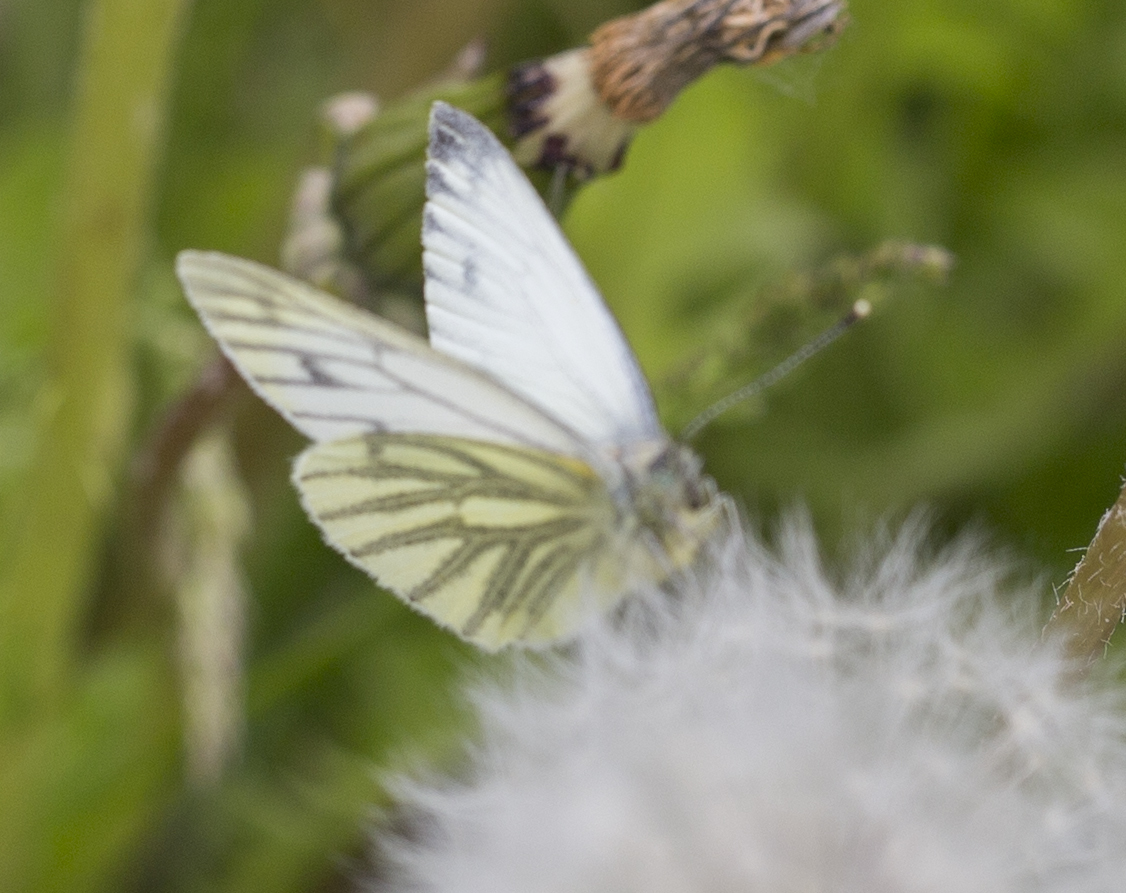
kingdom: Animalia
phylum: Arthropoda
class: Insecta
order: Lepidoptera
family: Pieridae
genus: Pieris
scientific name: Pieris napi
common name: Green-veined white
